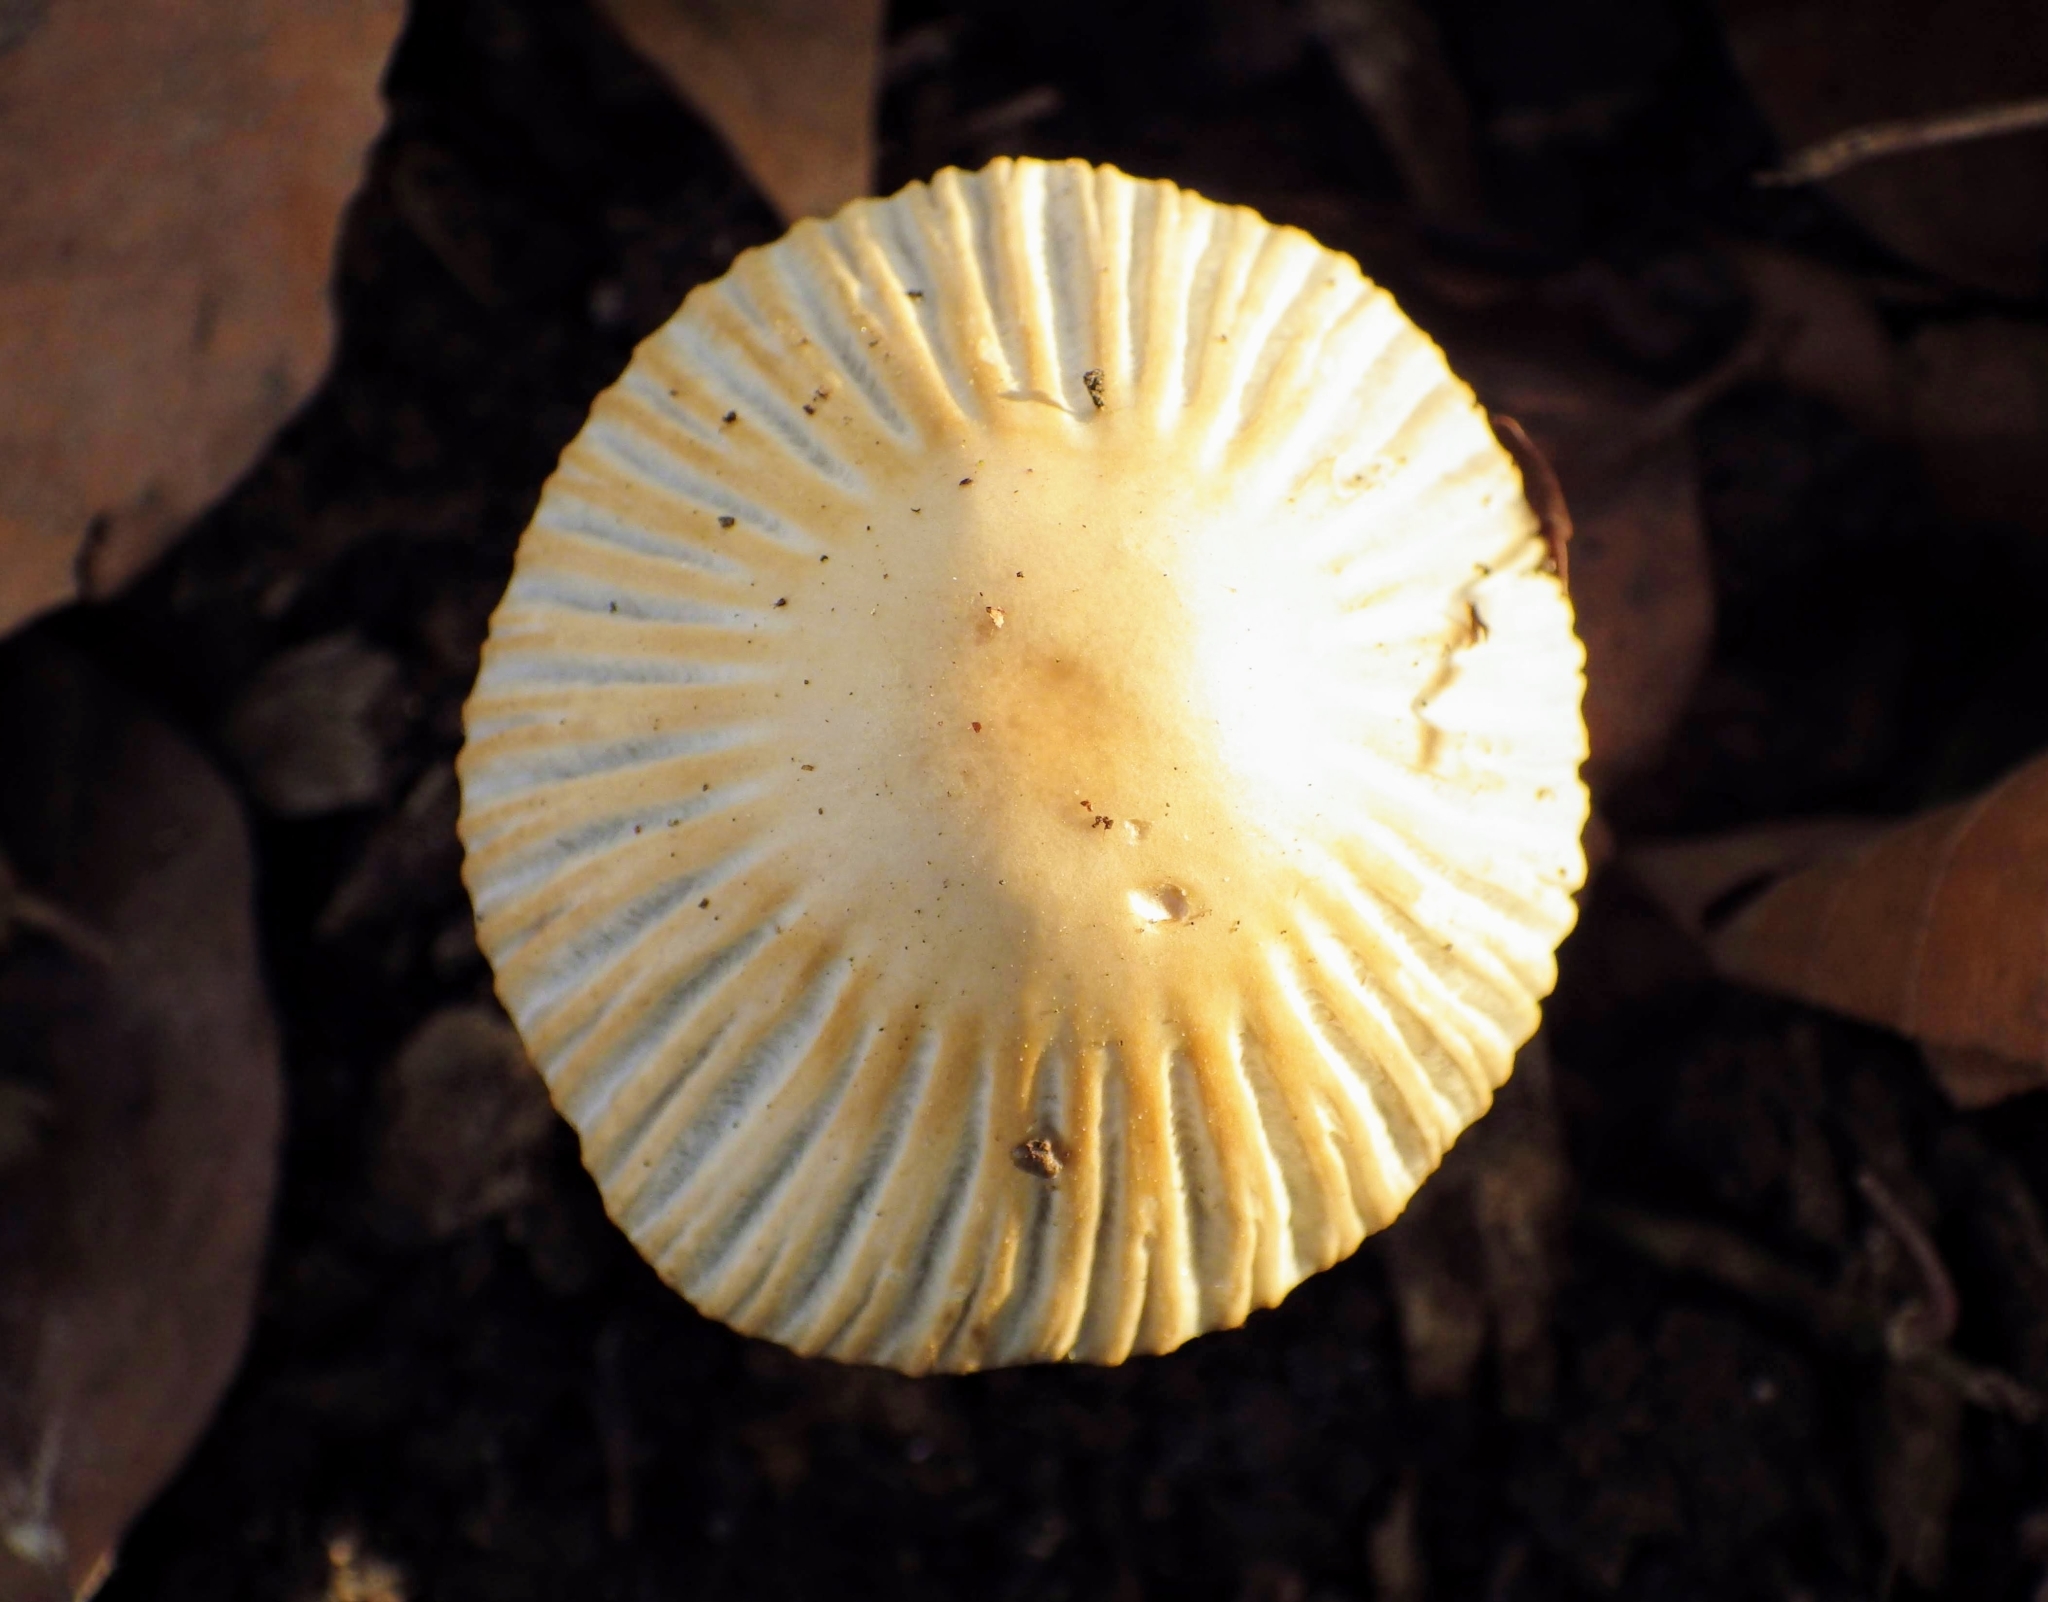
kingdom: Fungi
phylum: Basidiomycota
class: Agaricomycetes
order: Agaricales
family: Psathyrellaceae
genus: Tulosesus
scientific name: Tulosesus impatiens
